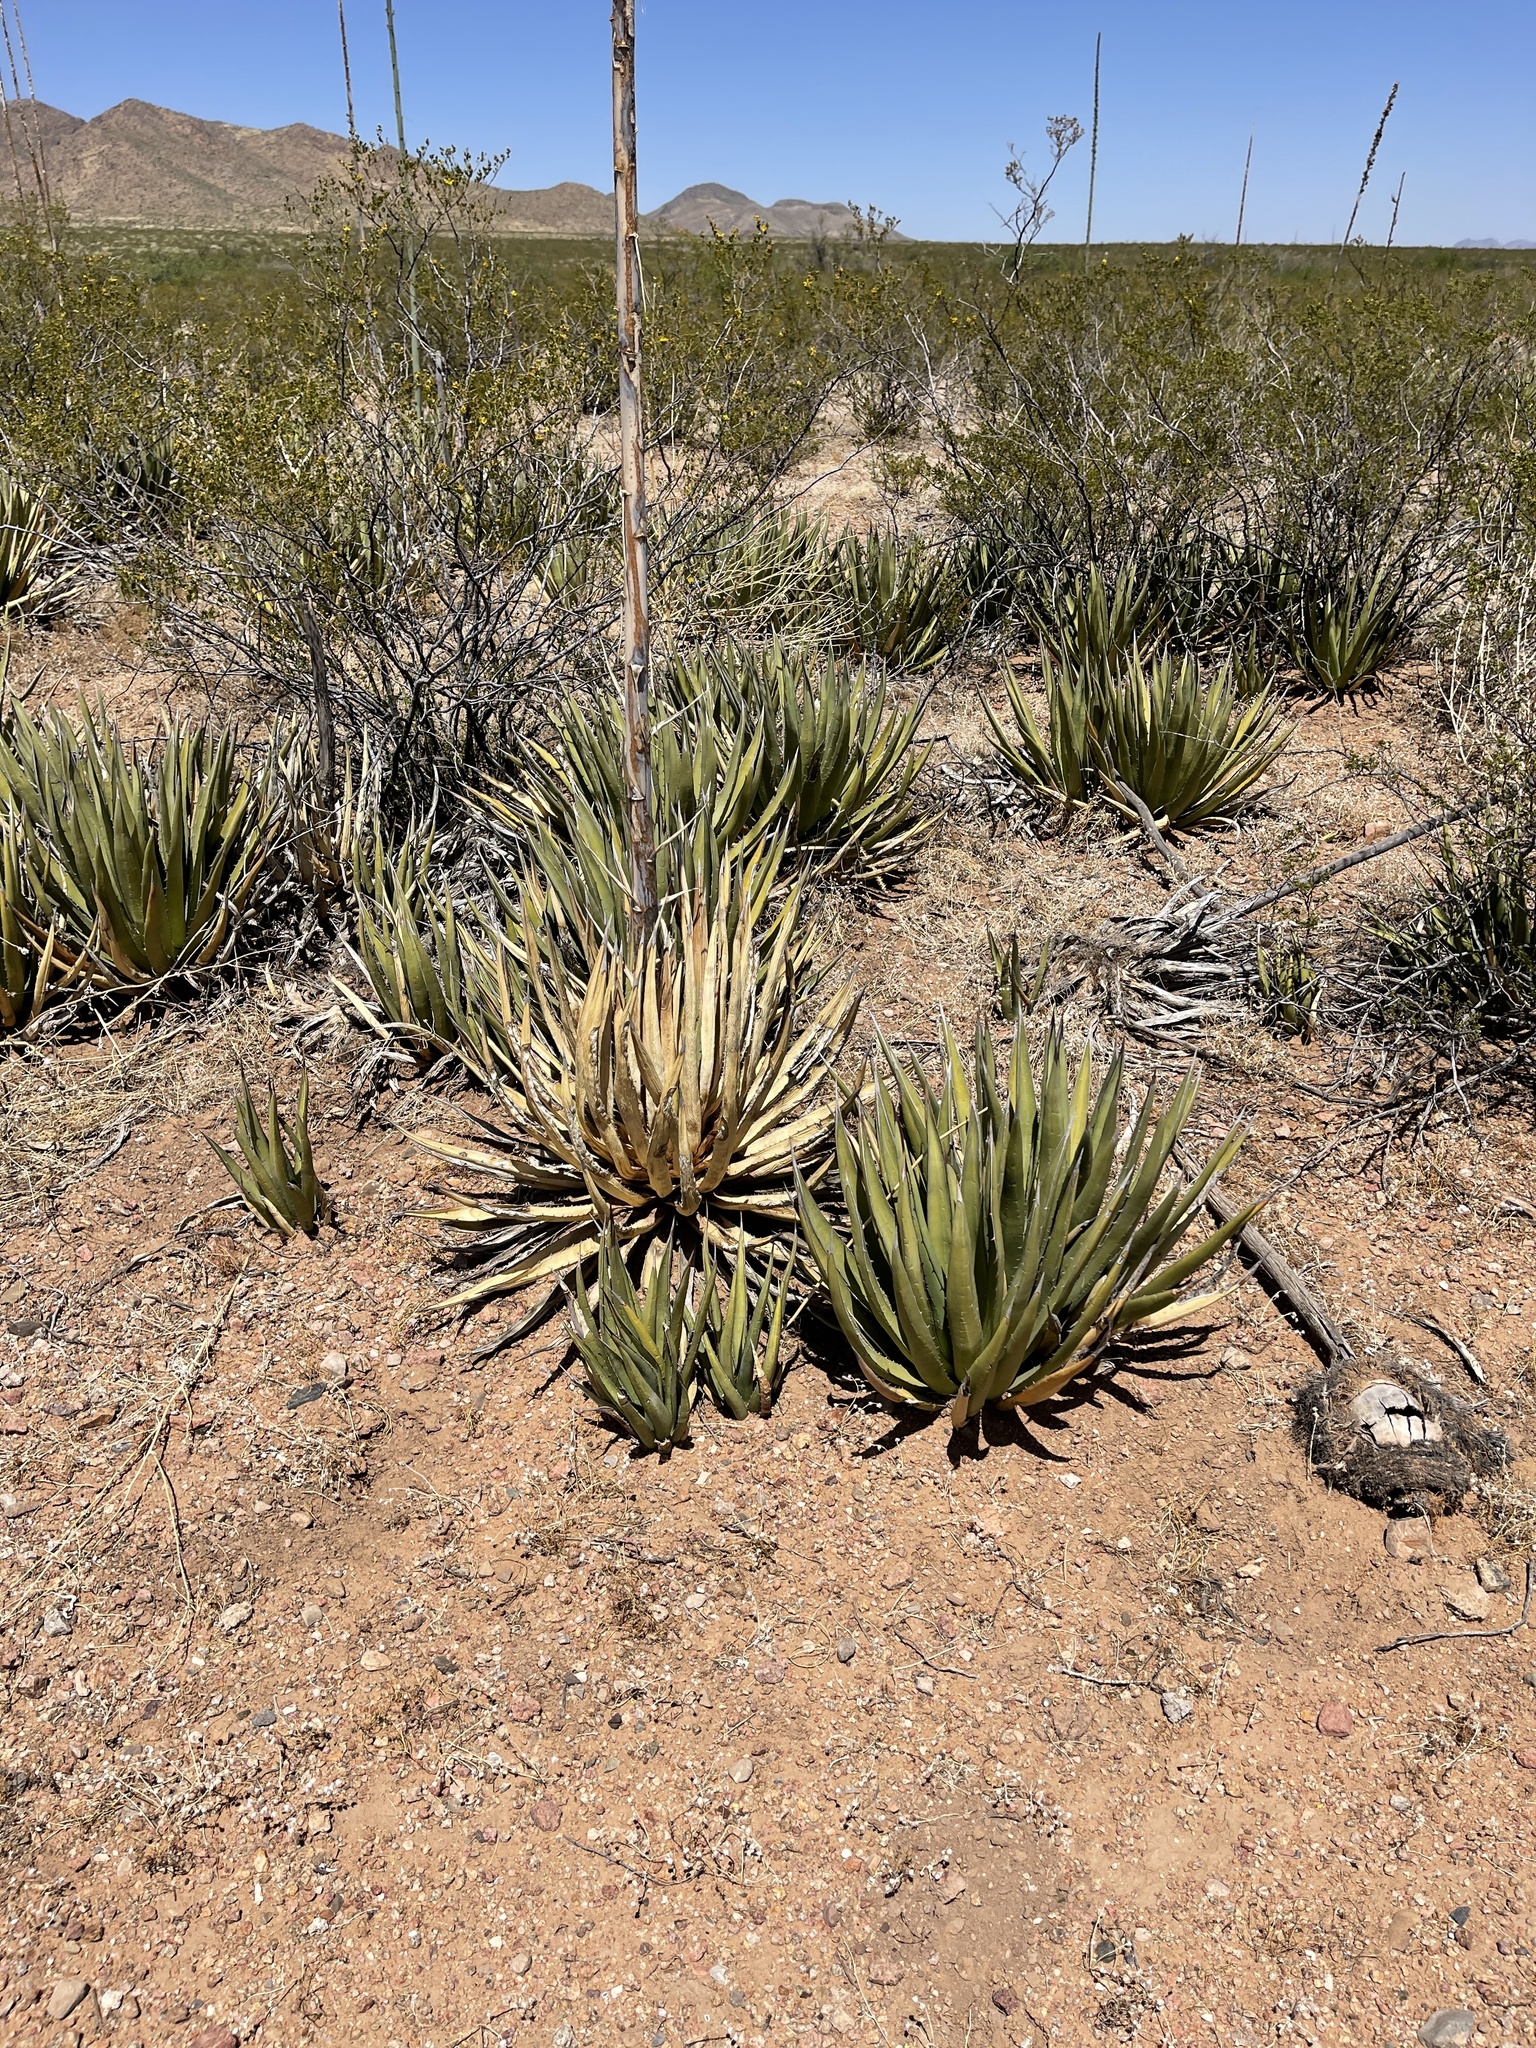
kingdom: Plantae
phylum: Tracheophyta
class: Liliopsida
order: Asparagales
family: Asparagaceae
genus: Agave
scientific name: Agave lechuguilla
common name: Lecheguilla agave
